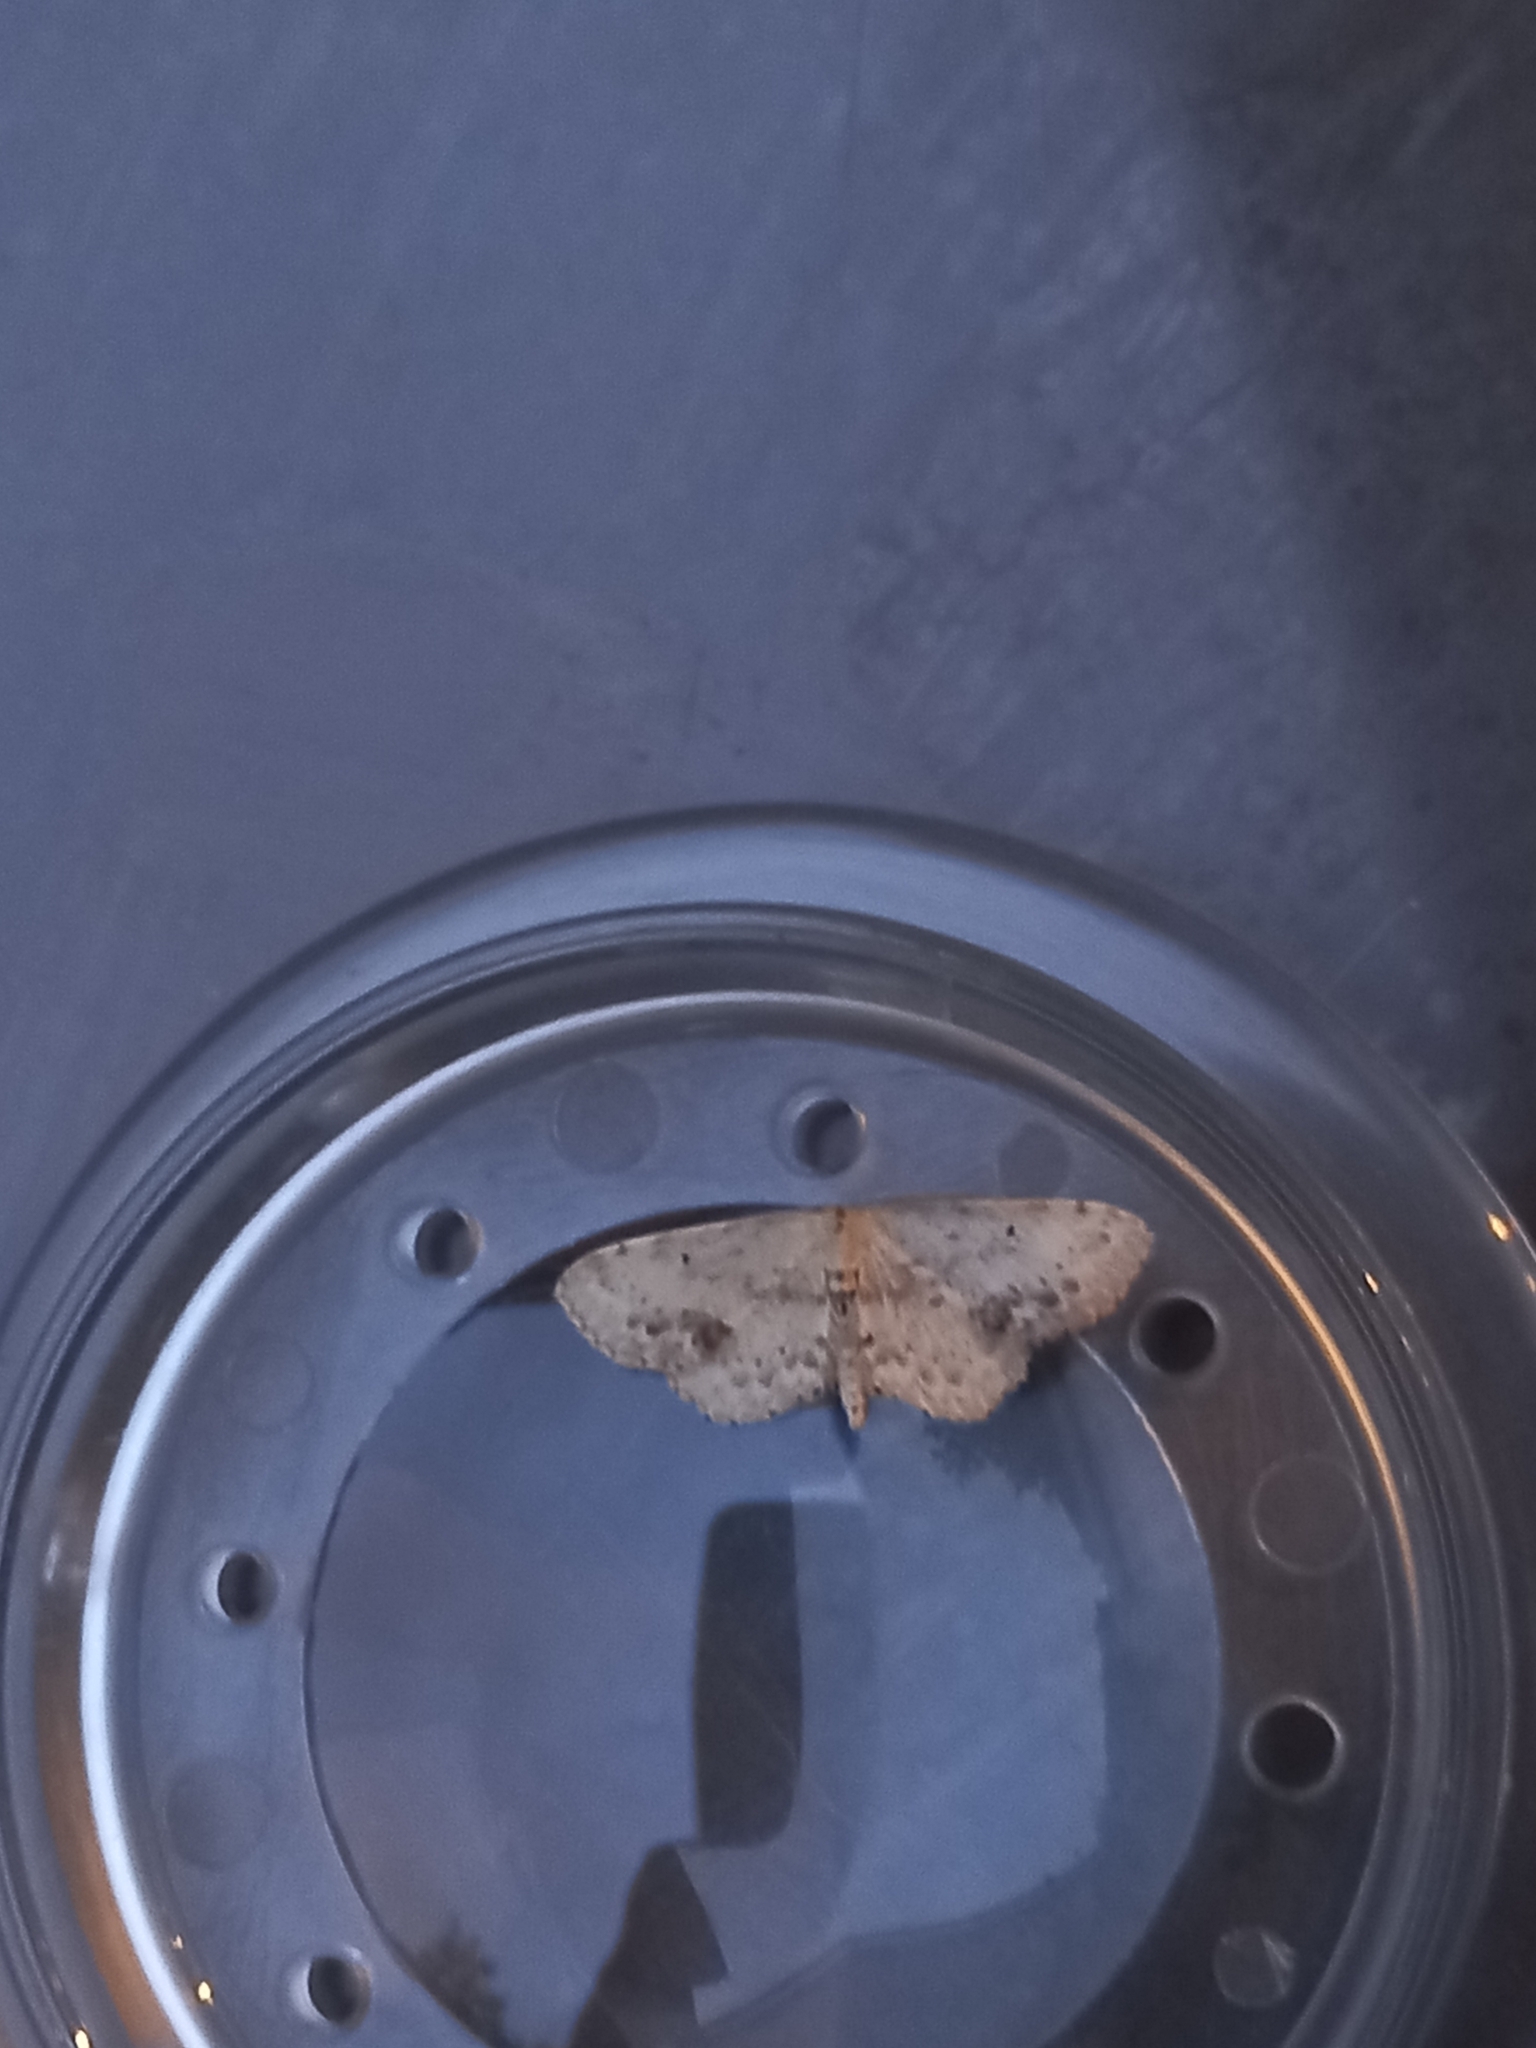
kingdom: Animalia
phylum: Arthropoda
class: Insecta
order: Lepidoptera
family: Geometridae
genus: Idaea
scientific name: Idaea dimidiata
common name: Single-dotted wave
